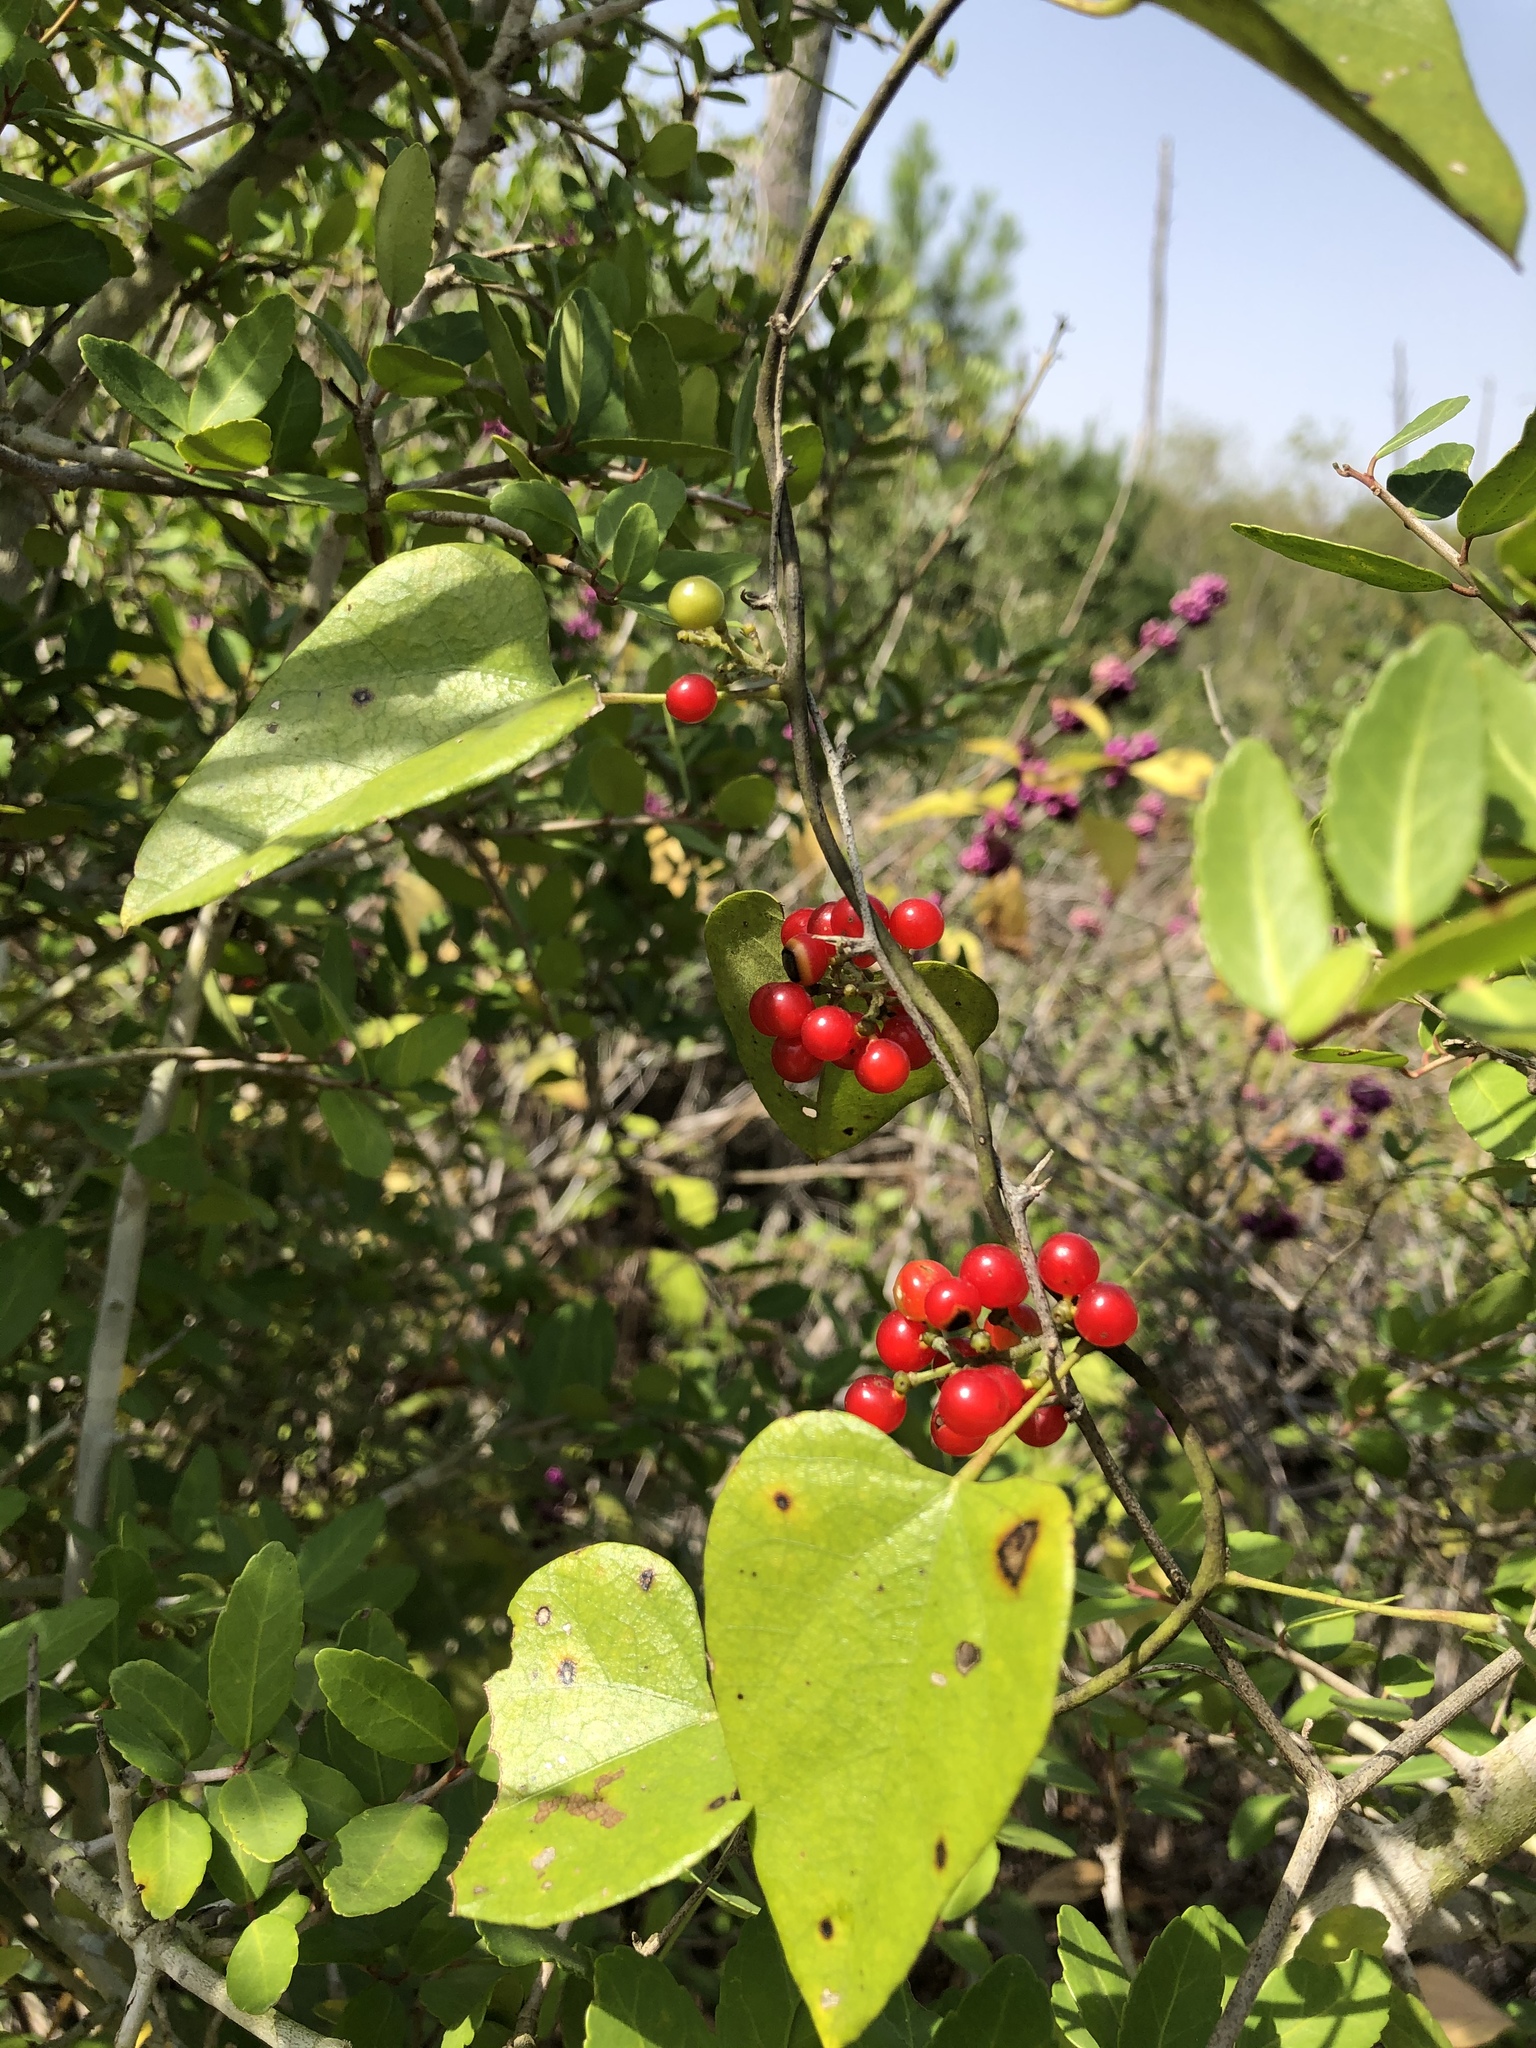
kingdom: Plantae
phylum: Tracheophyta
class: Magnoliopsida
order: Ranunculales
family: Menispermaceae
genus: Cocculus
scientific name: Cocculus carolinus
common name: Carolina moonseed
